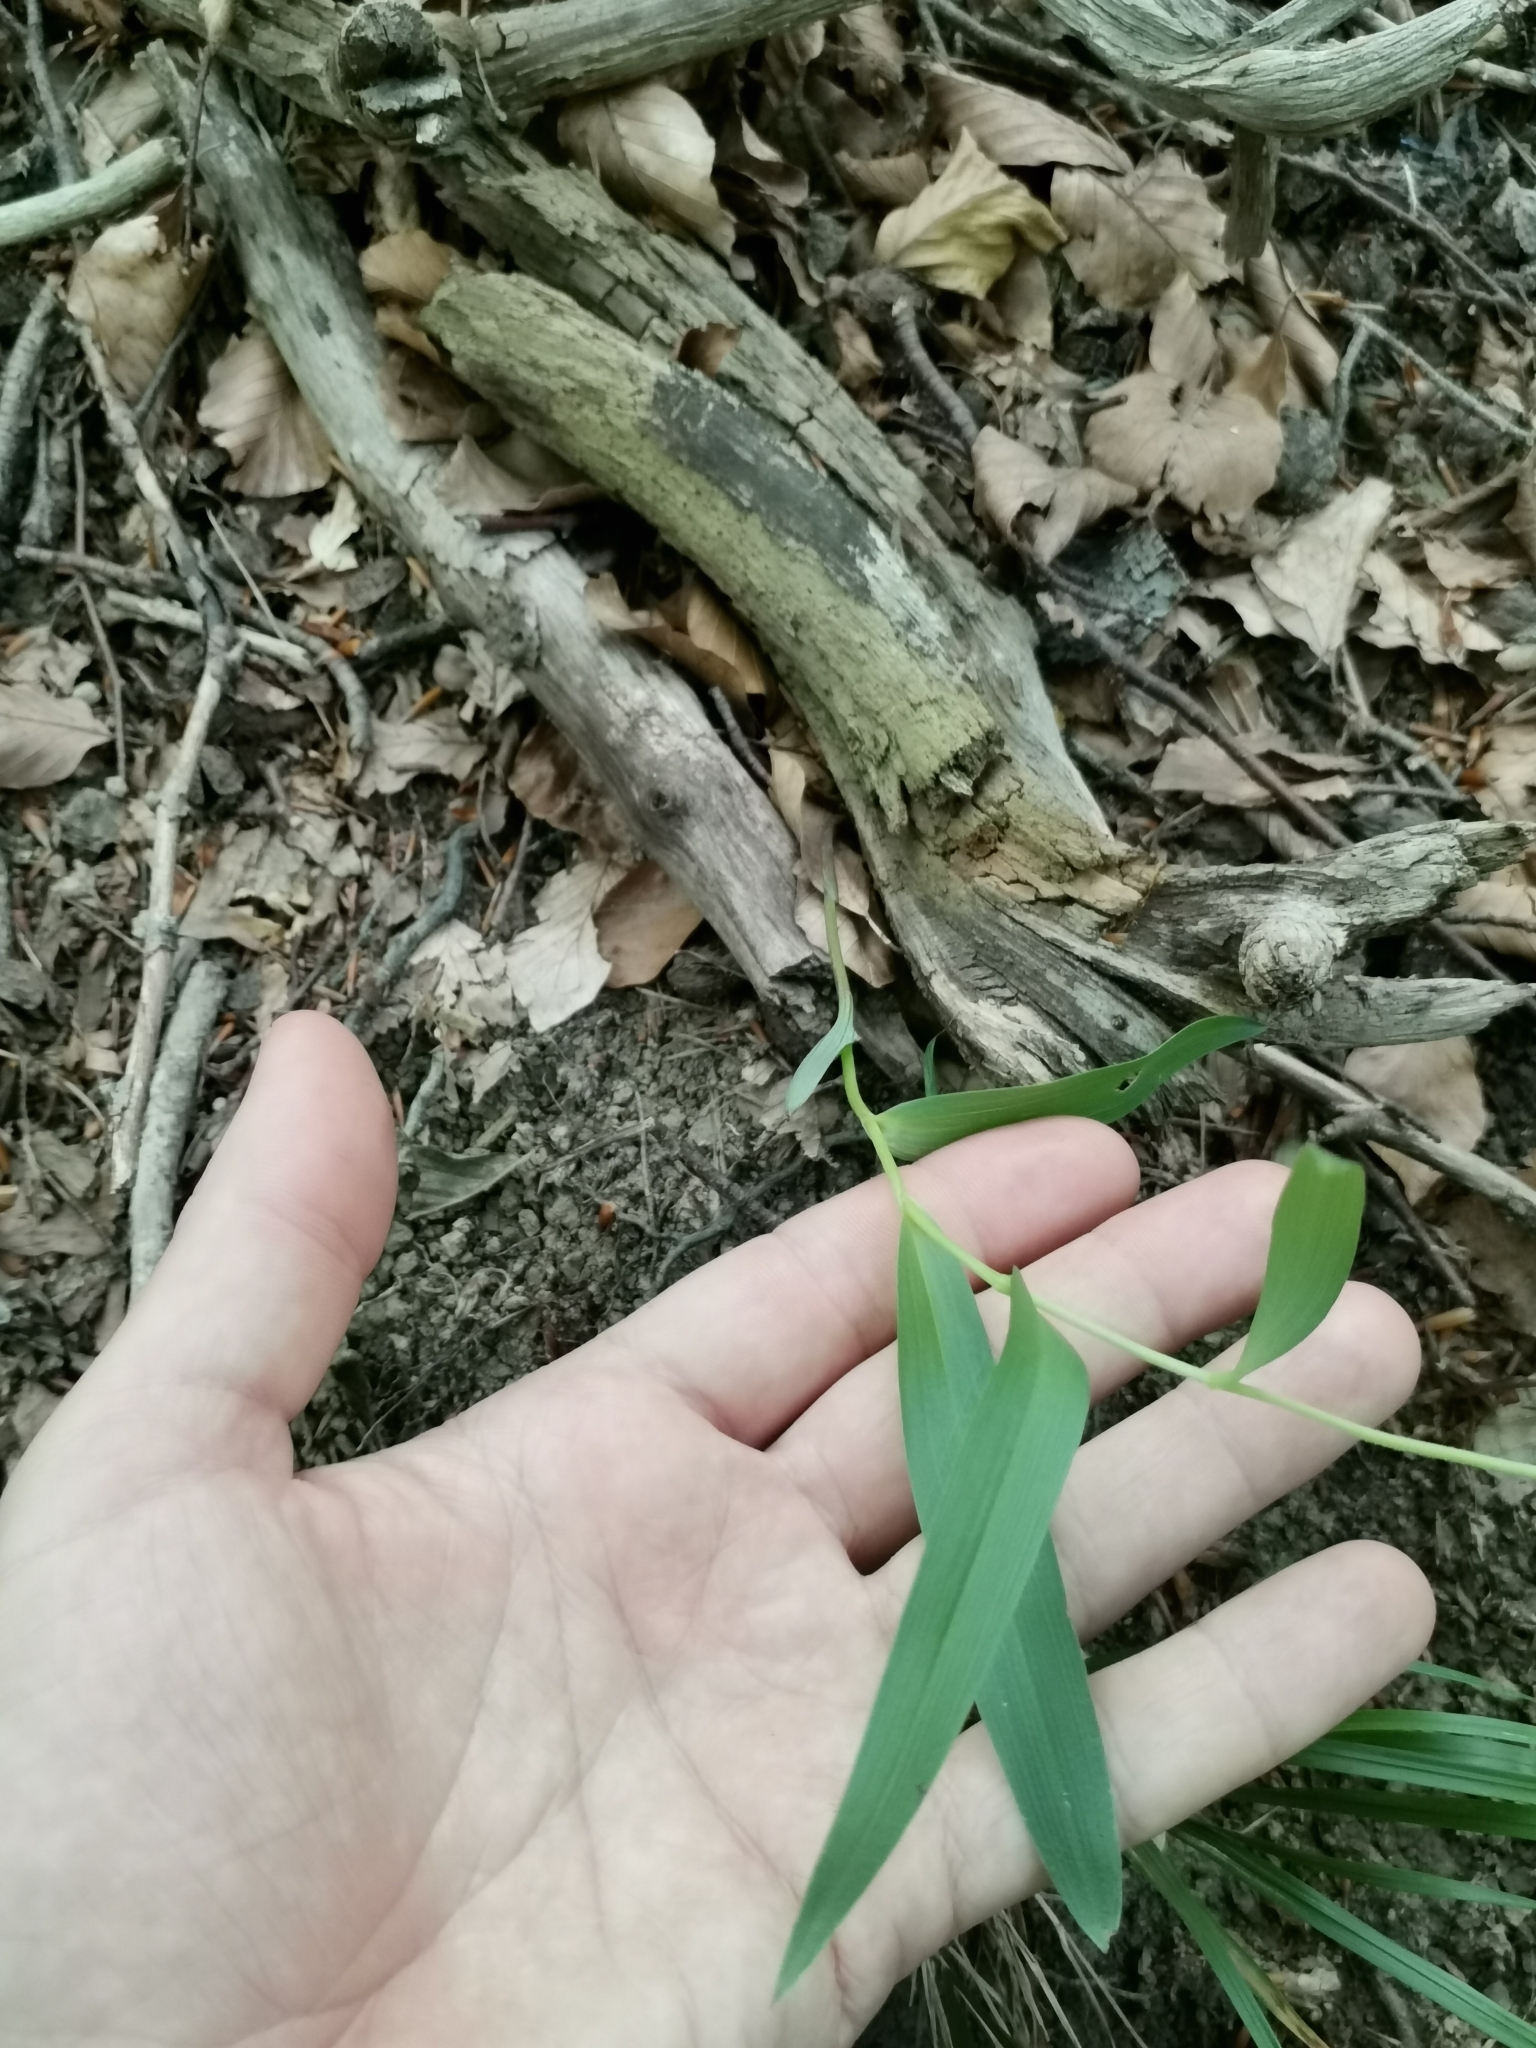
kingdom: Plantae
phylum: Tracheophyta
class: Liliopsida
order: Asparagales
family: Orchidaceae
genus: Cephalanthera
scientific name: Cephalanthera rubra
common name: Red helleborine
